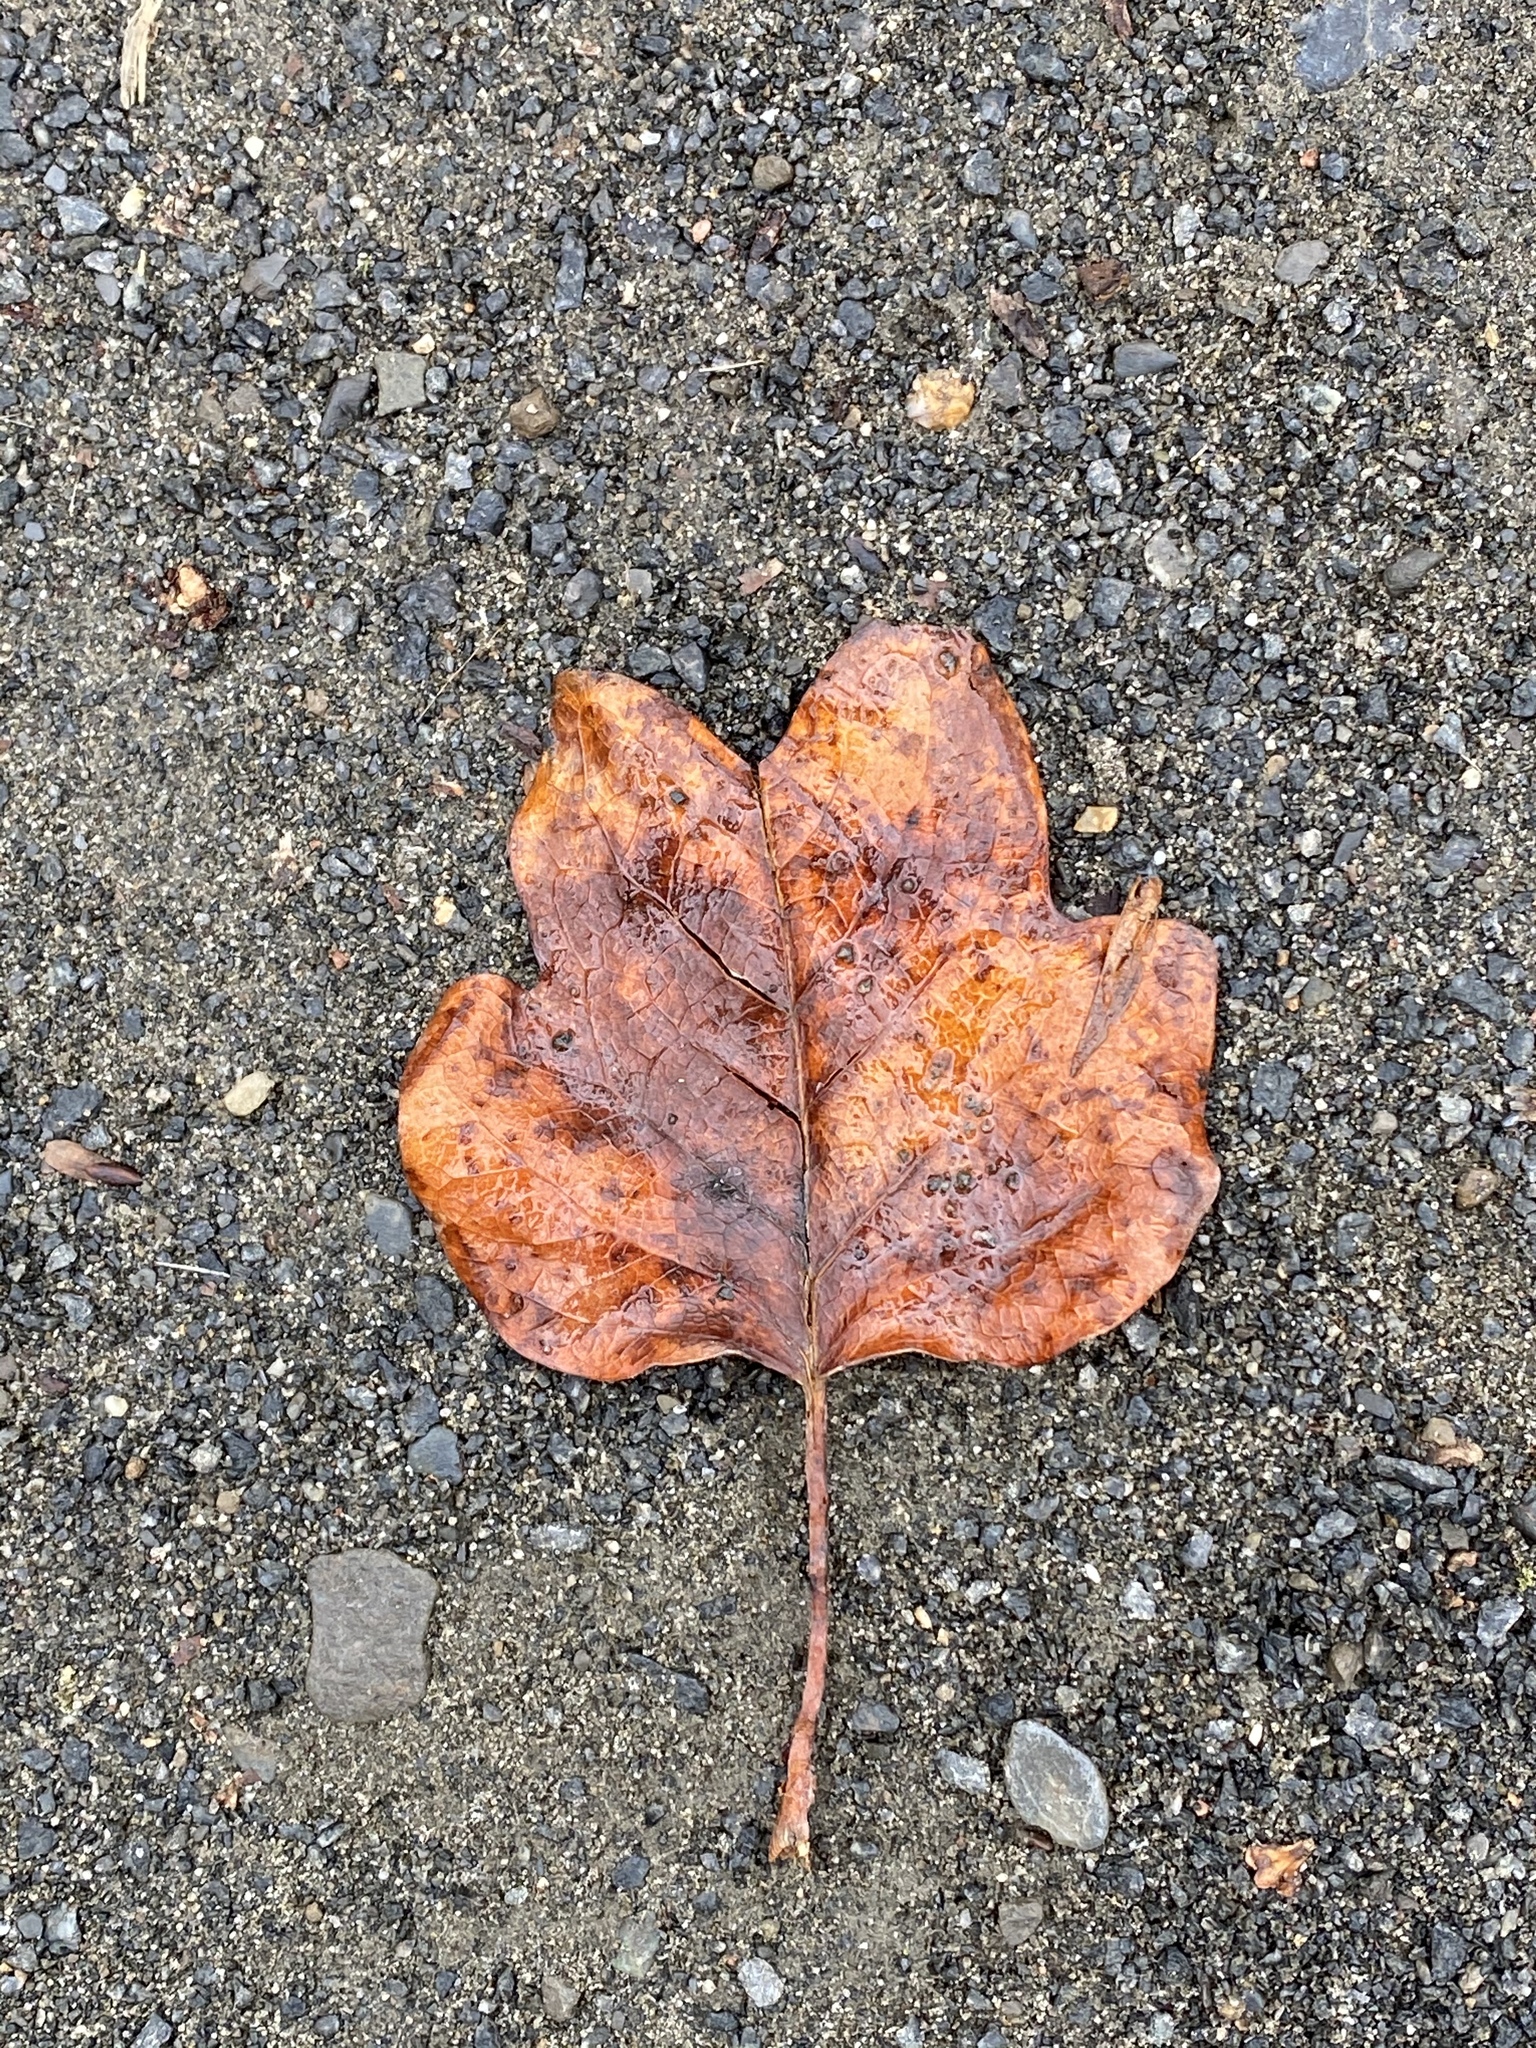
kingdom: Plantae
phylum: Tracheophyta
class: Magnoliopsida
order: Magnoliales
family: Magnoliaceae
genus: Liriodendron
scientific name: Liriodendron tulipifera
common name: Tulip tree
